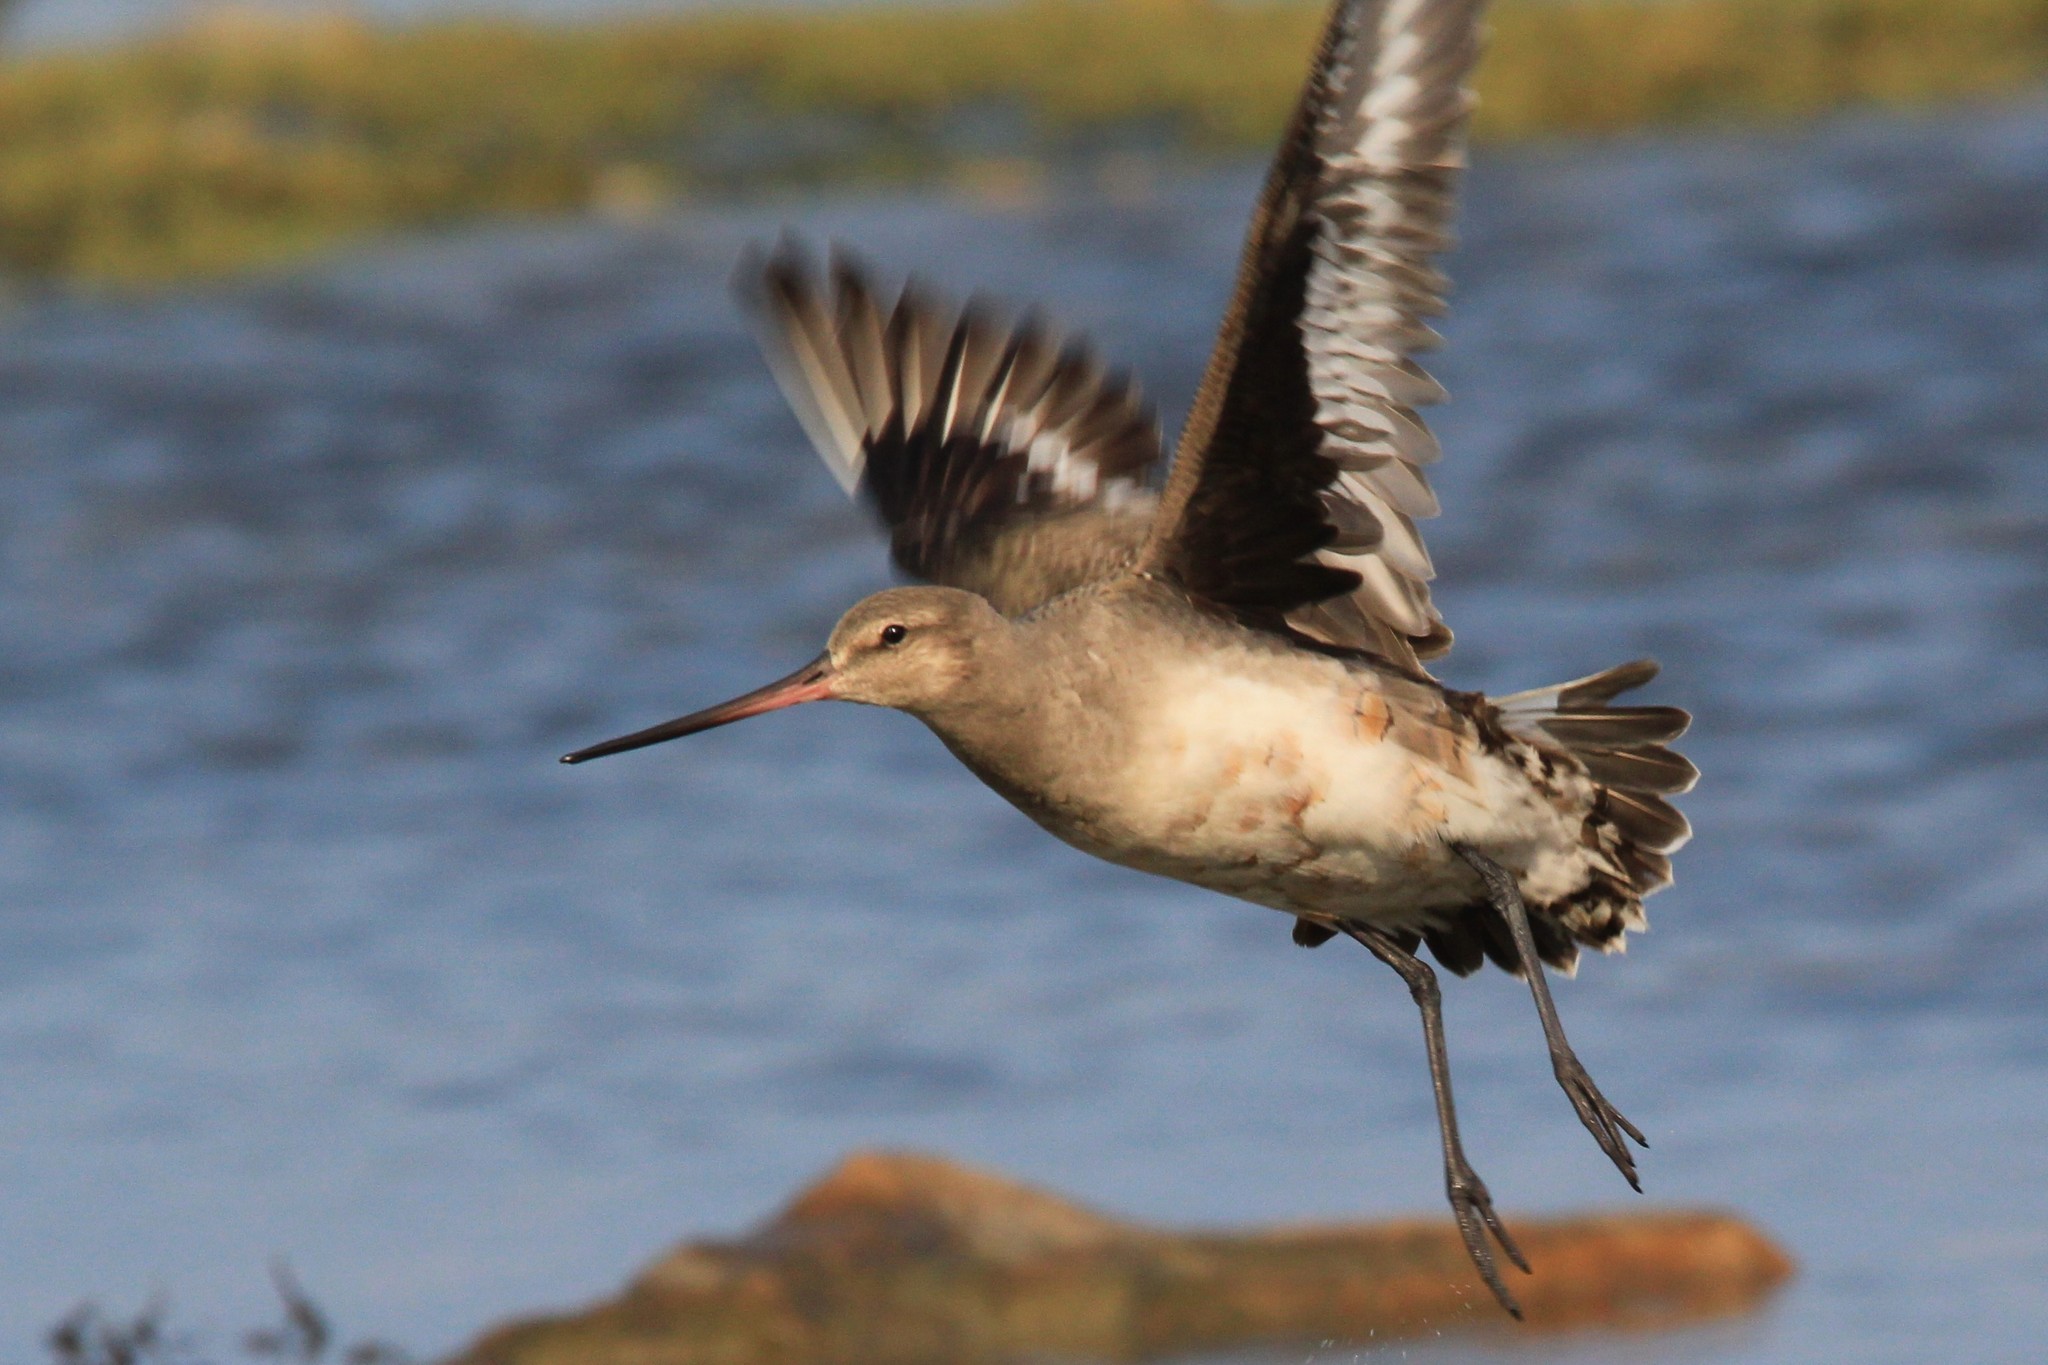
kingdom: Animalia
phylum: Chordata
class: Aves
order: Charadriiformes
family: Scolopacidae
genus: Limosa
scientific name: Limosa haemastica
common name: Hudsonian godwit
